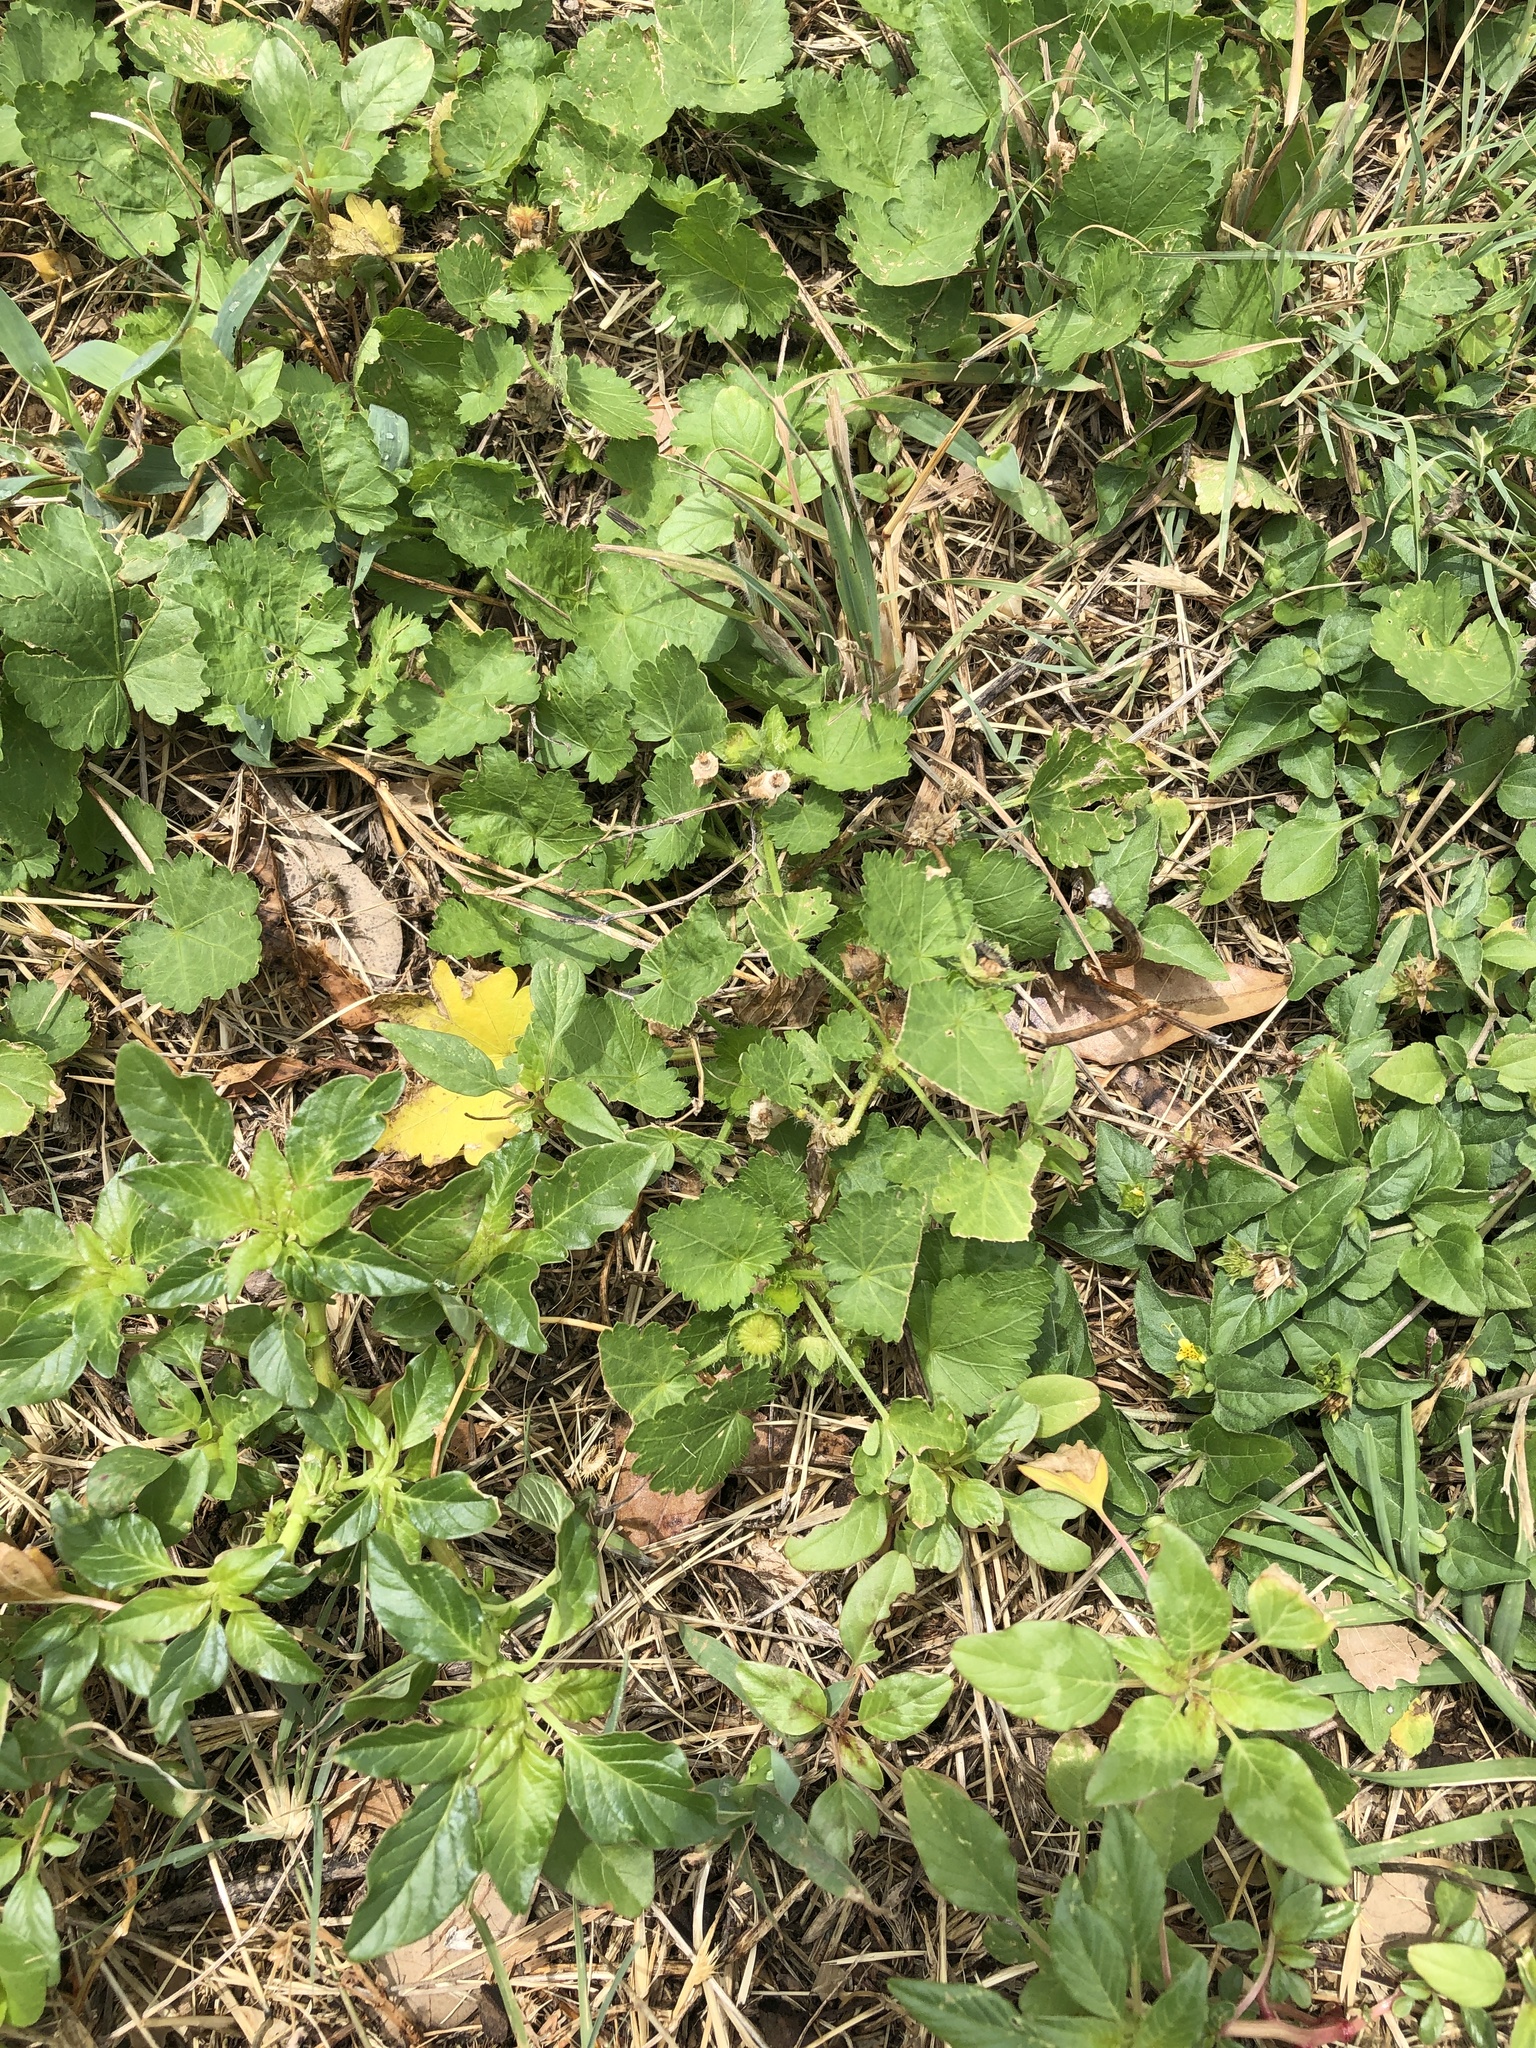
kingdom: Plantae
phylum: Tracheophyta
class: Magnoliopsida
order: Malvales
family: Malvaceae
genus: Modiola
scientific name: Modiola caroliniana
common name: Carolina bristlemallow
